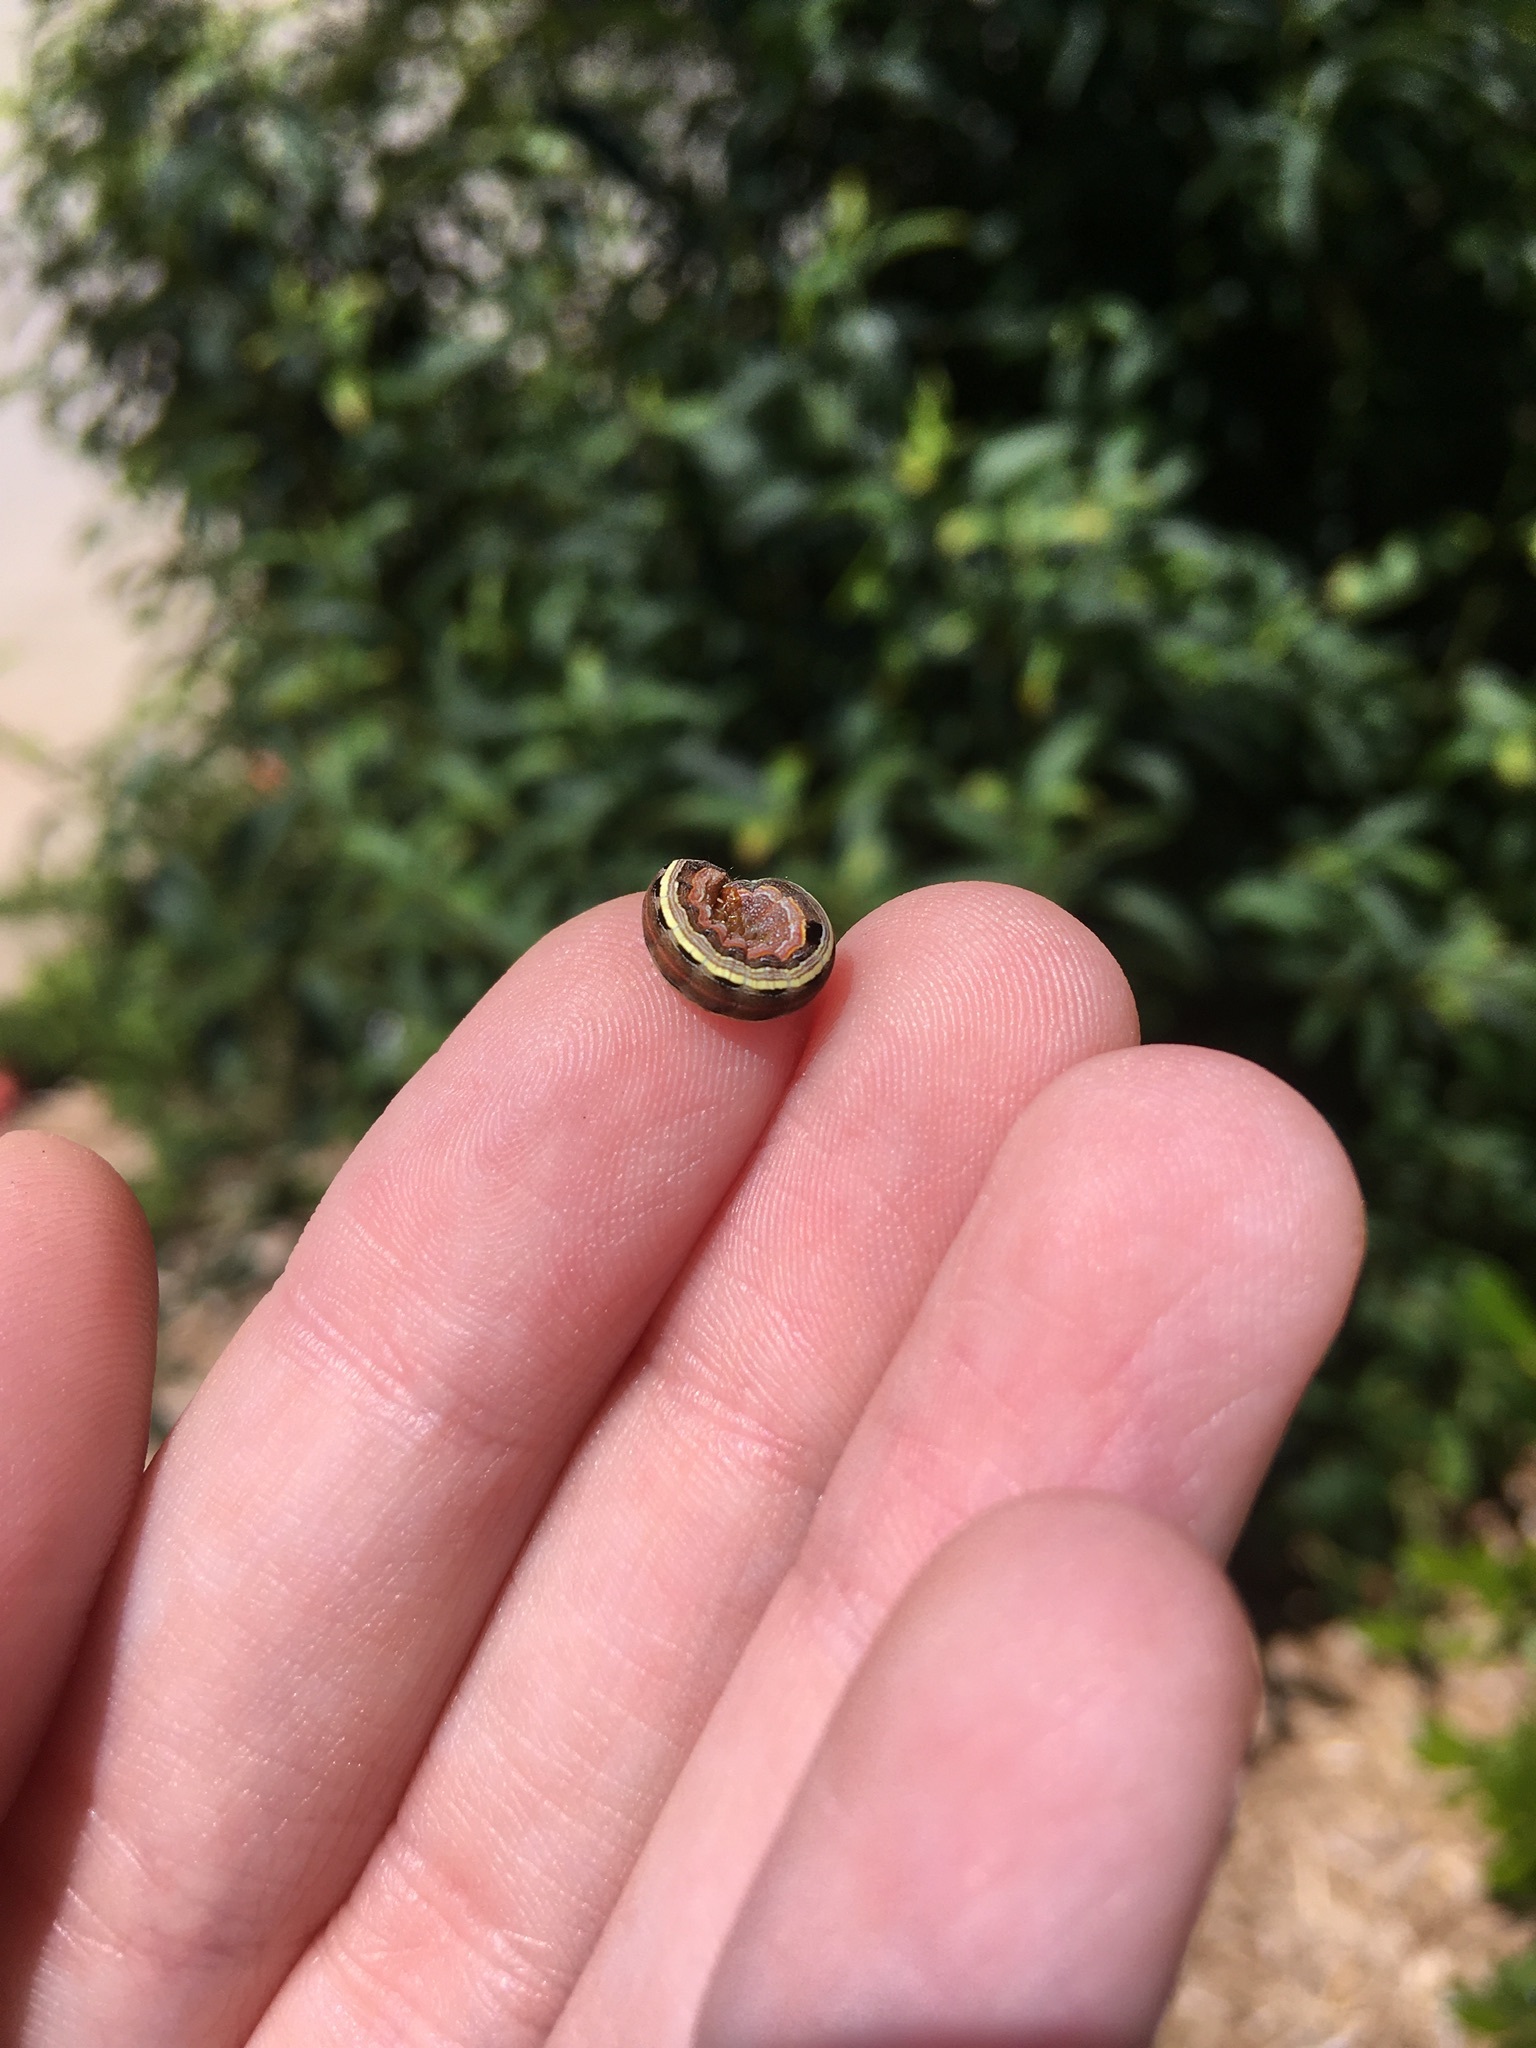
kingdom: Animalia
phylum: Arthropoda
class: Insecta
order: Lepidoptera
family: Noctuidae
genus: Spodoptera
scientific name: Spodoptera ornithogalli
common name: Yellow-striped armyworm
